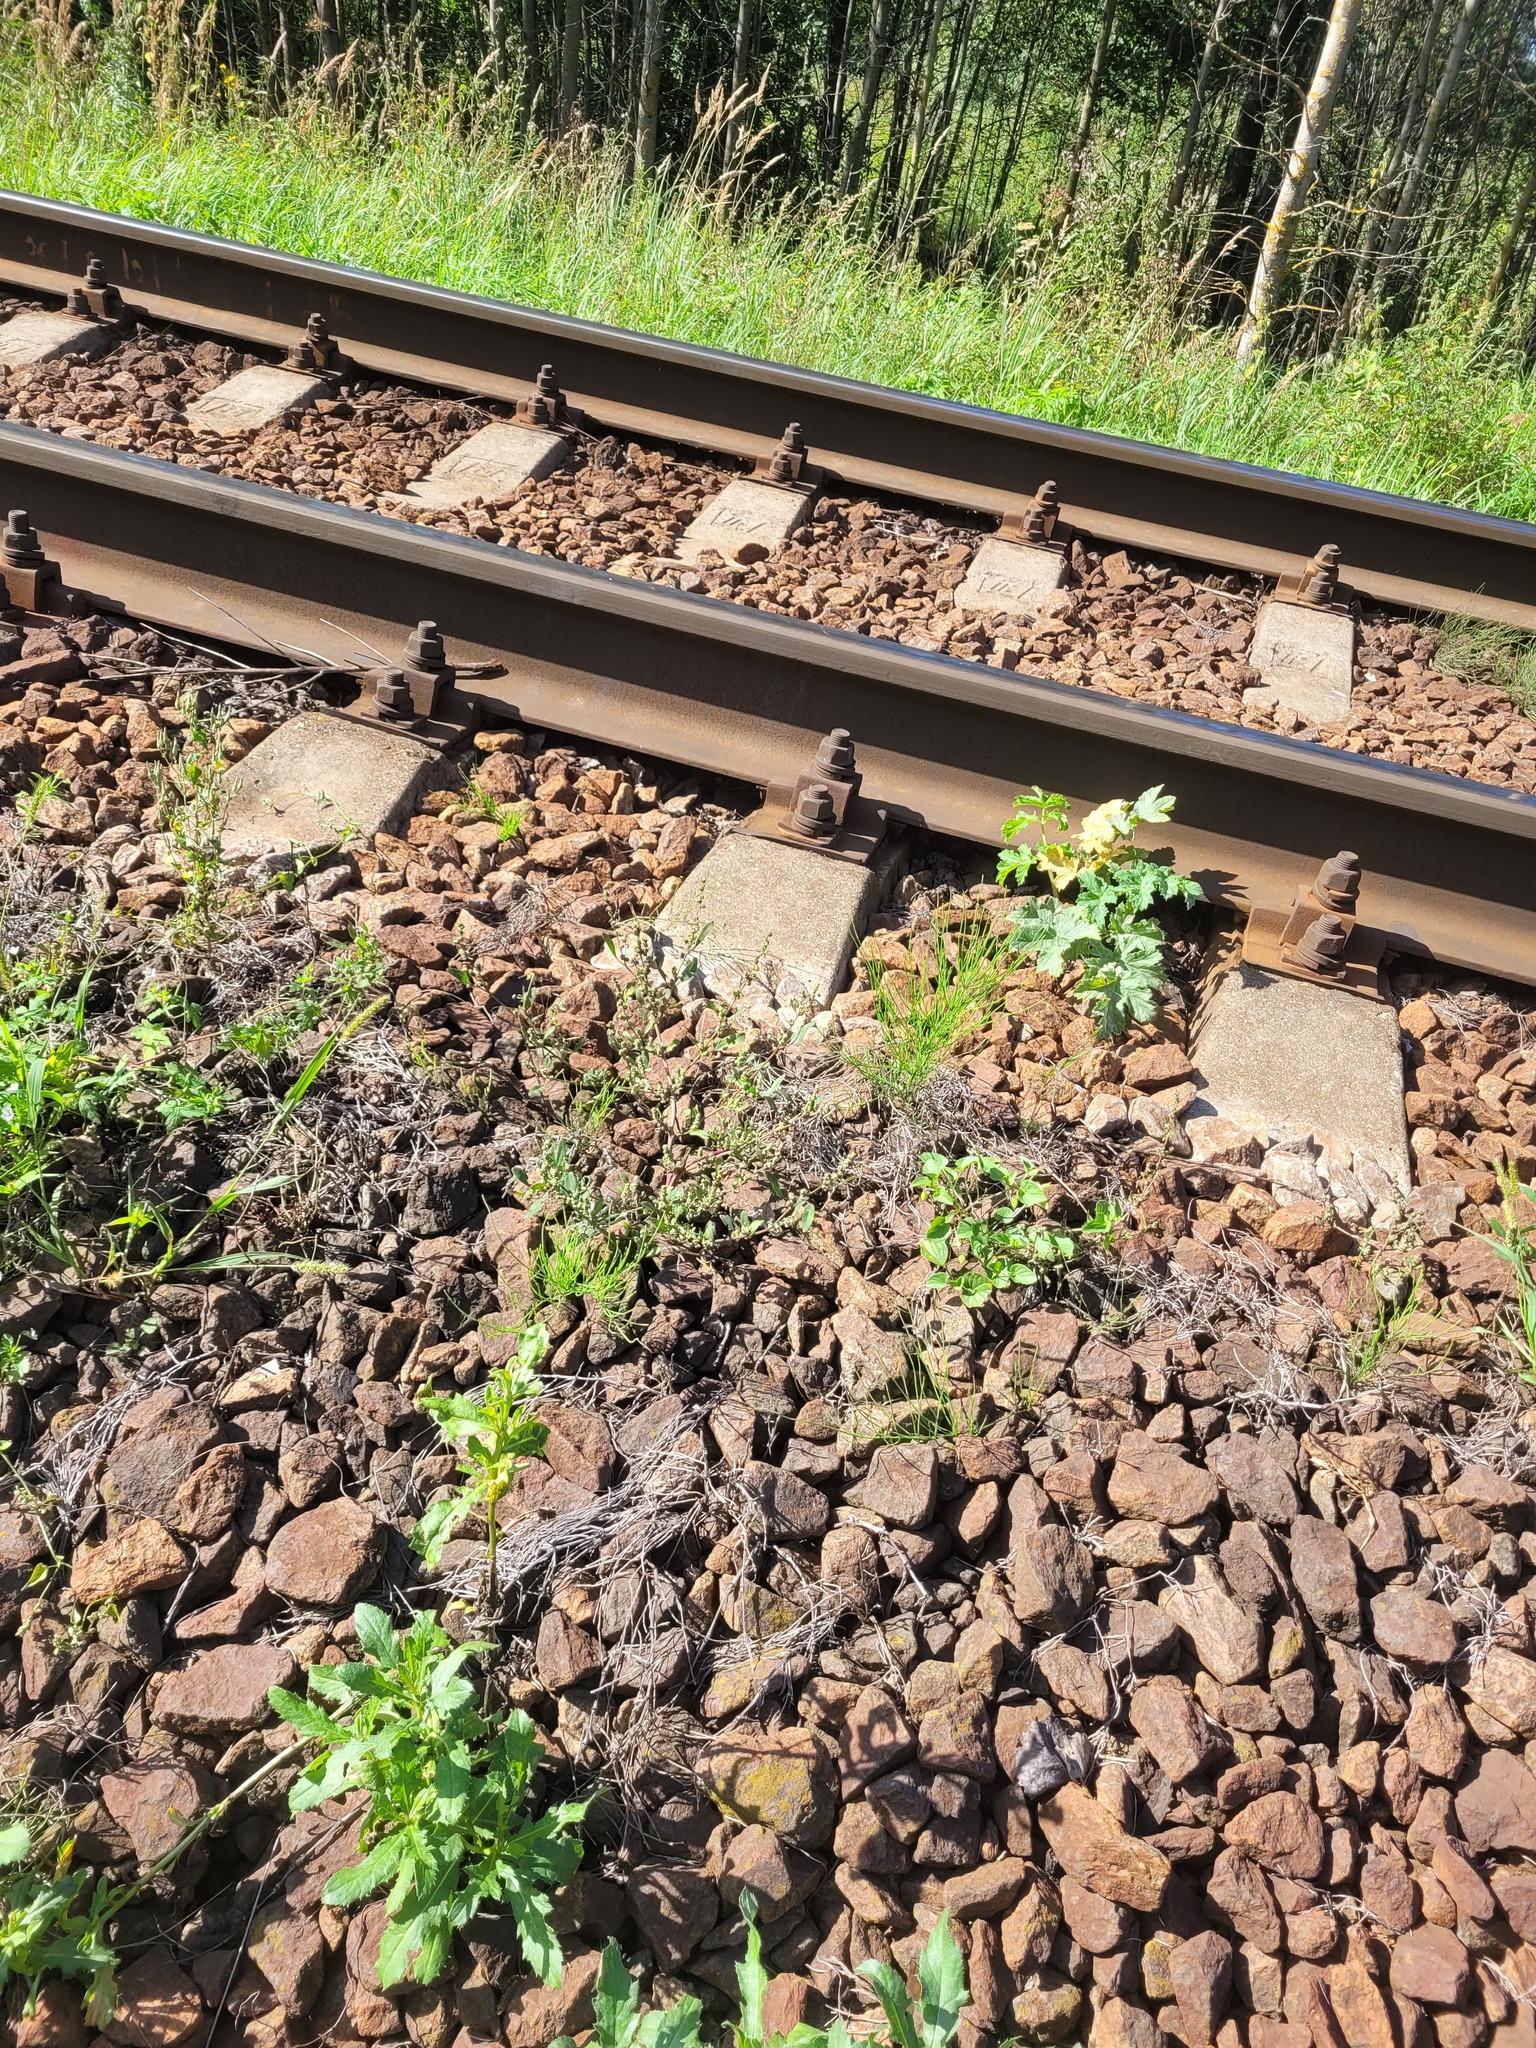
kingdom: Plantae
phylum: Tracheophyta
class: Magnoliopsida
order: Caryophyllales
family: Amaranthaceae
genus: Chenopodium
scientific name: Chenopodium betaceum
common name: Striped goosefoot
